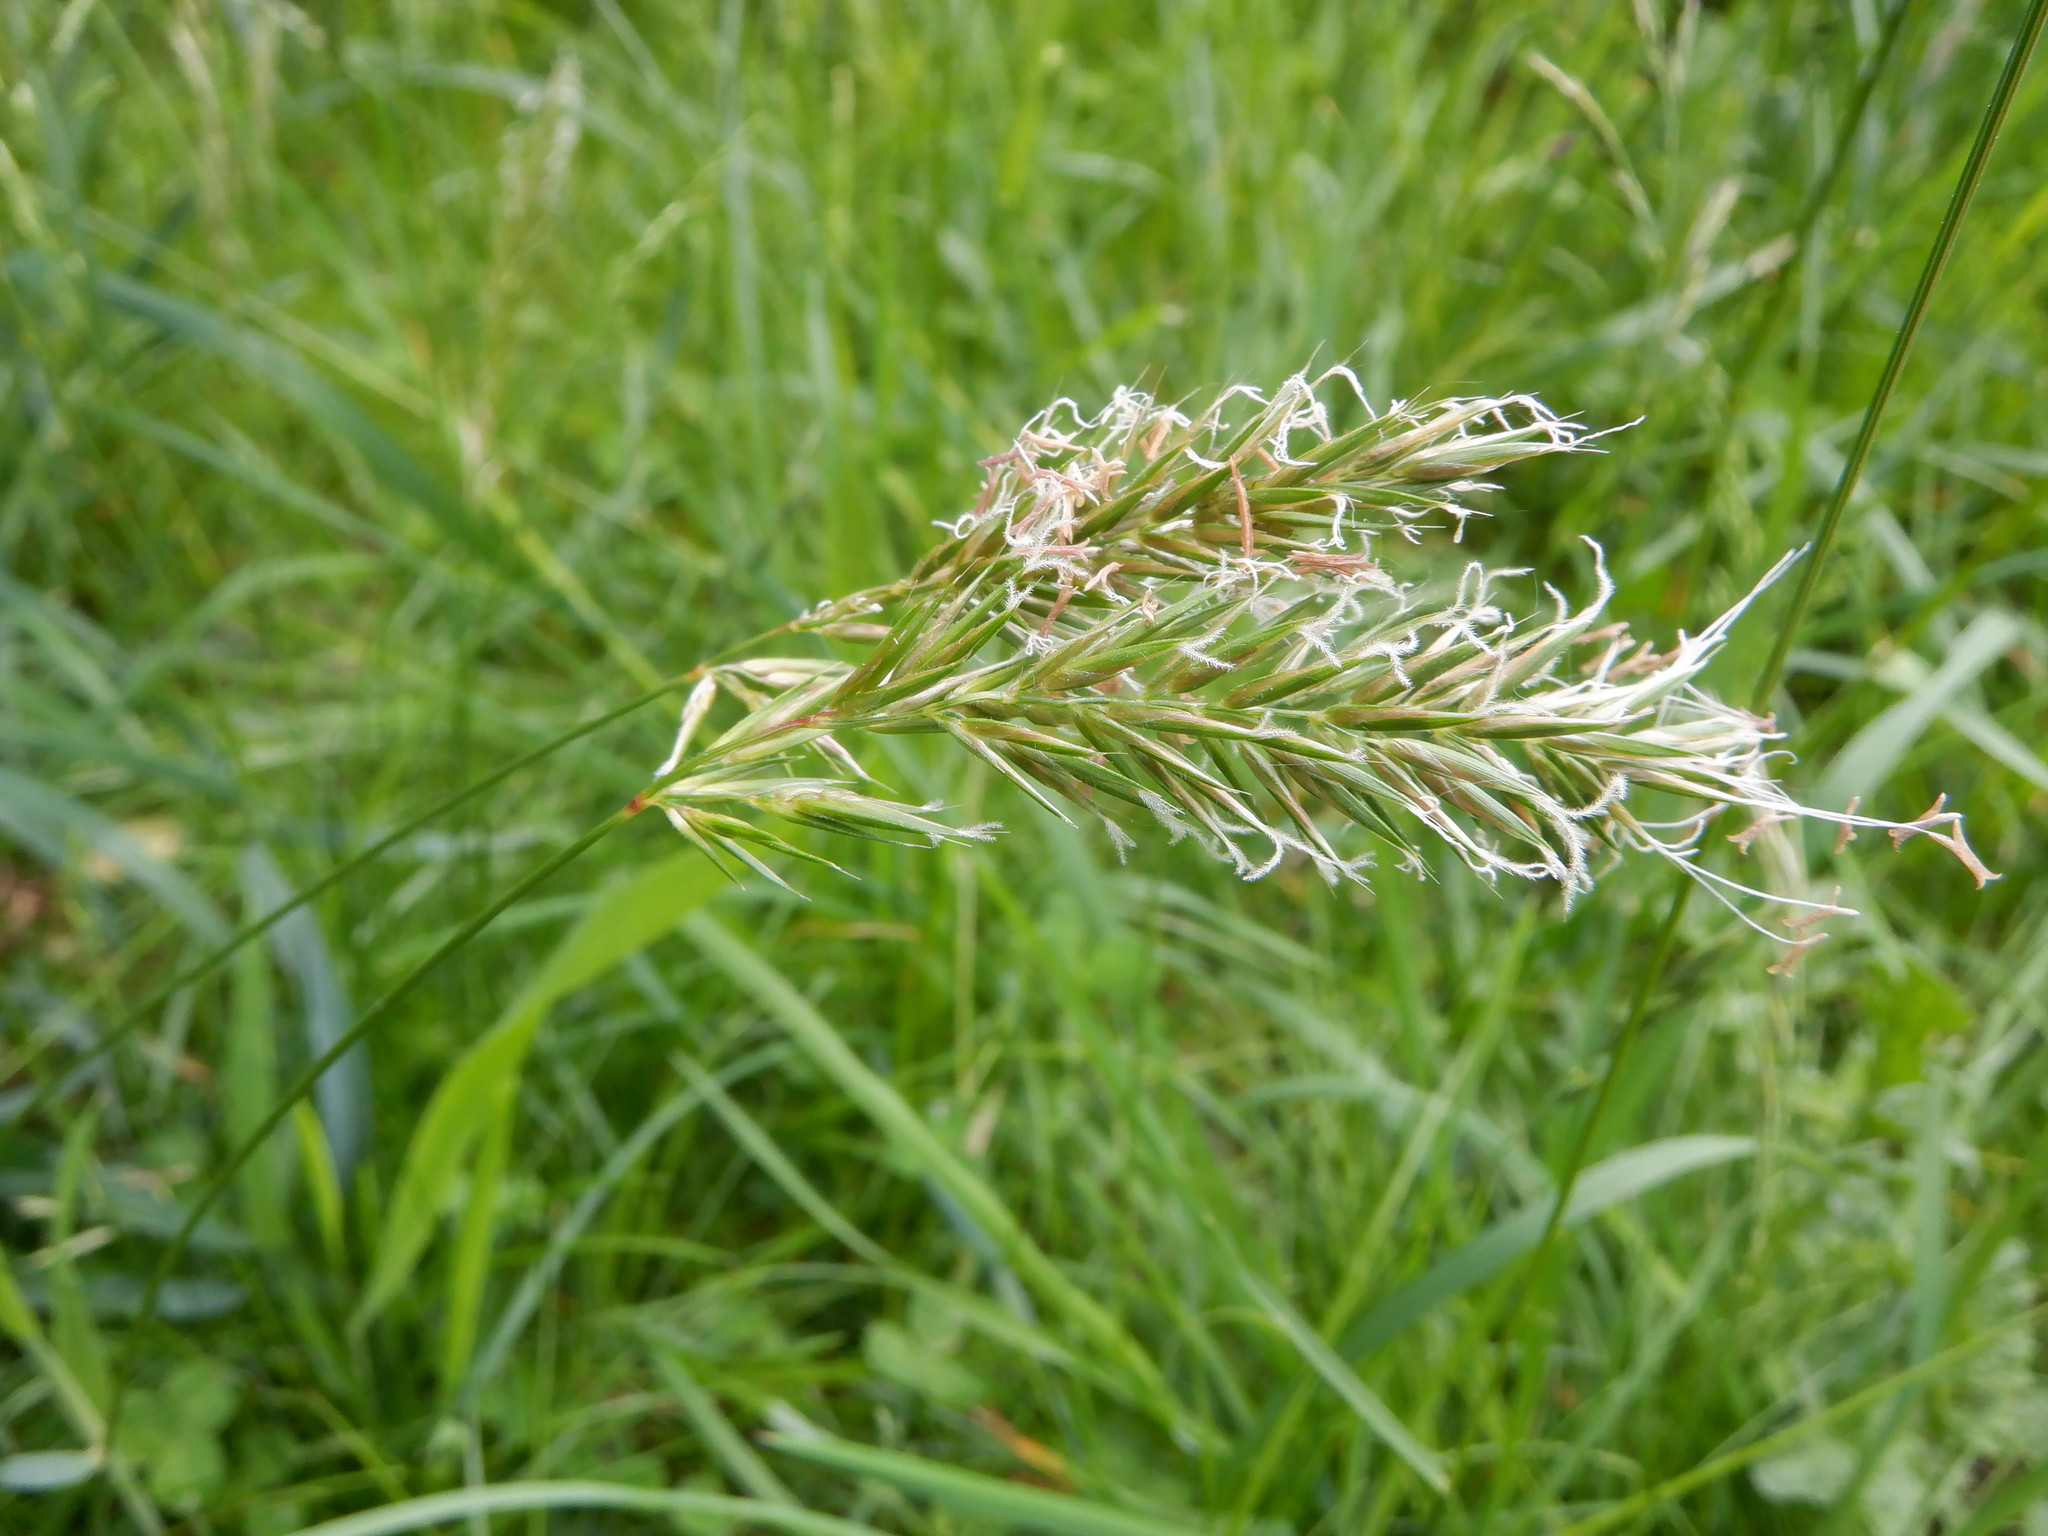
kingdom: Plantae
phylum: Tracheophyta
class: Liliopsida
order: Poales
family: Poaceae
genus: Anthoxanthum
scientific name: Anthoxanthum odoratum
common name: Sweet vernalgrass
